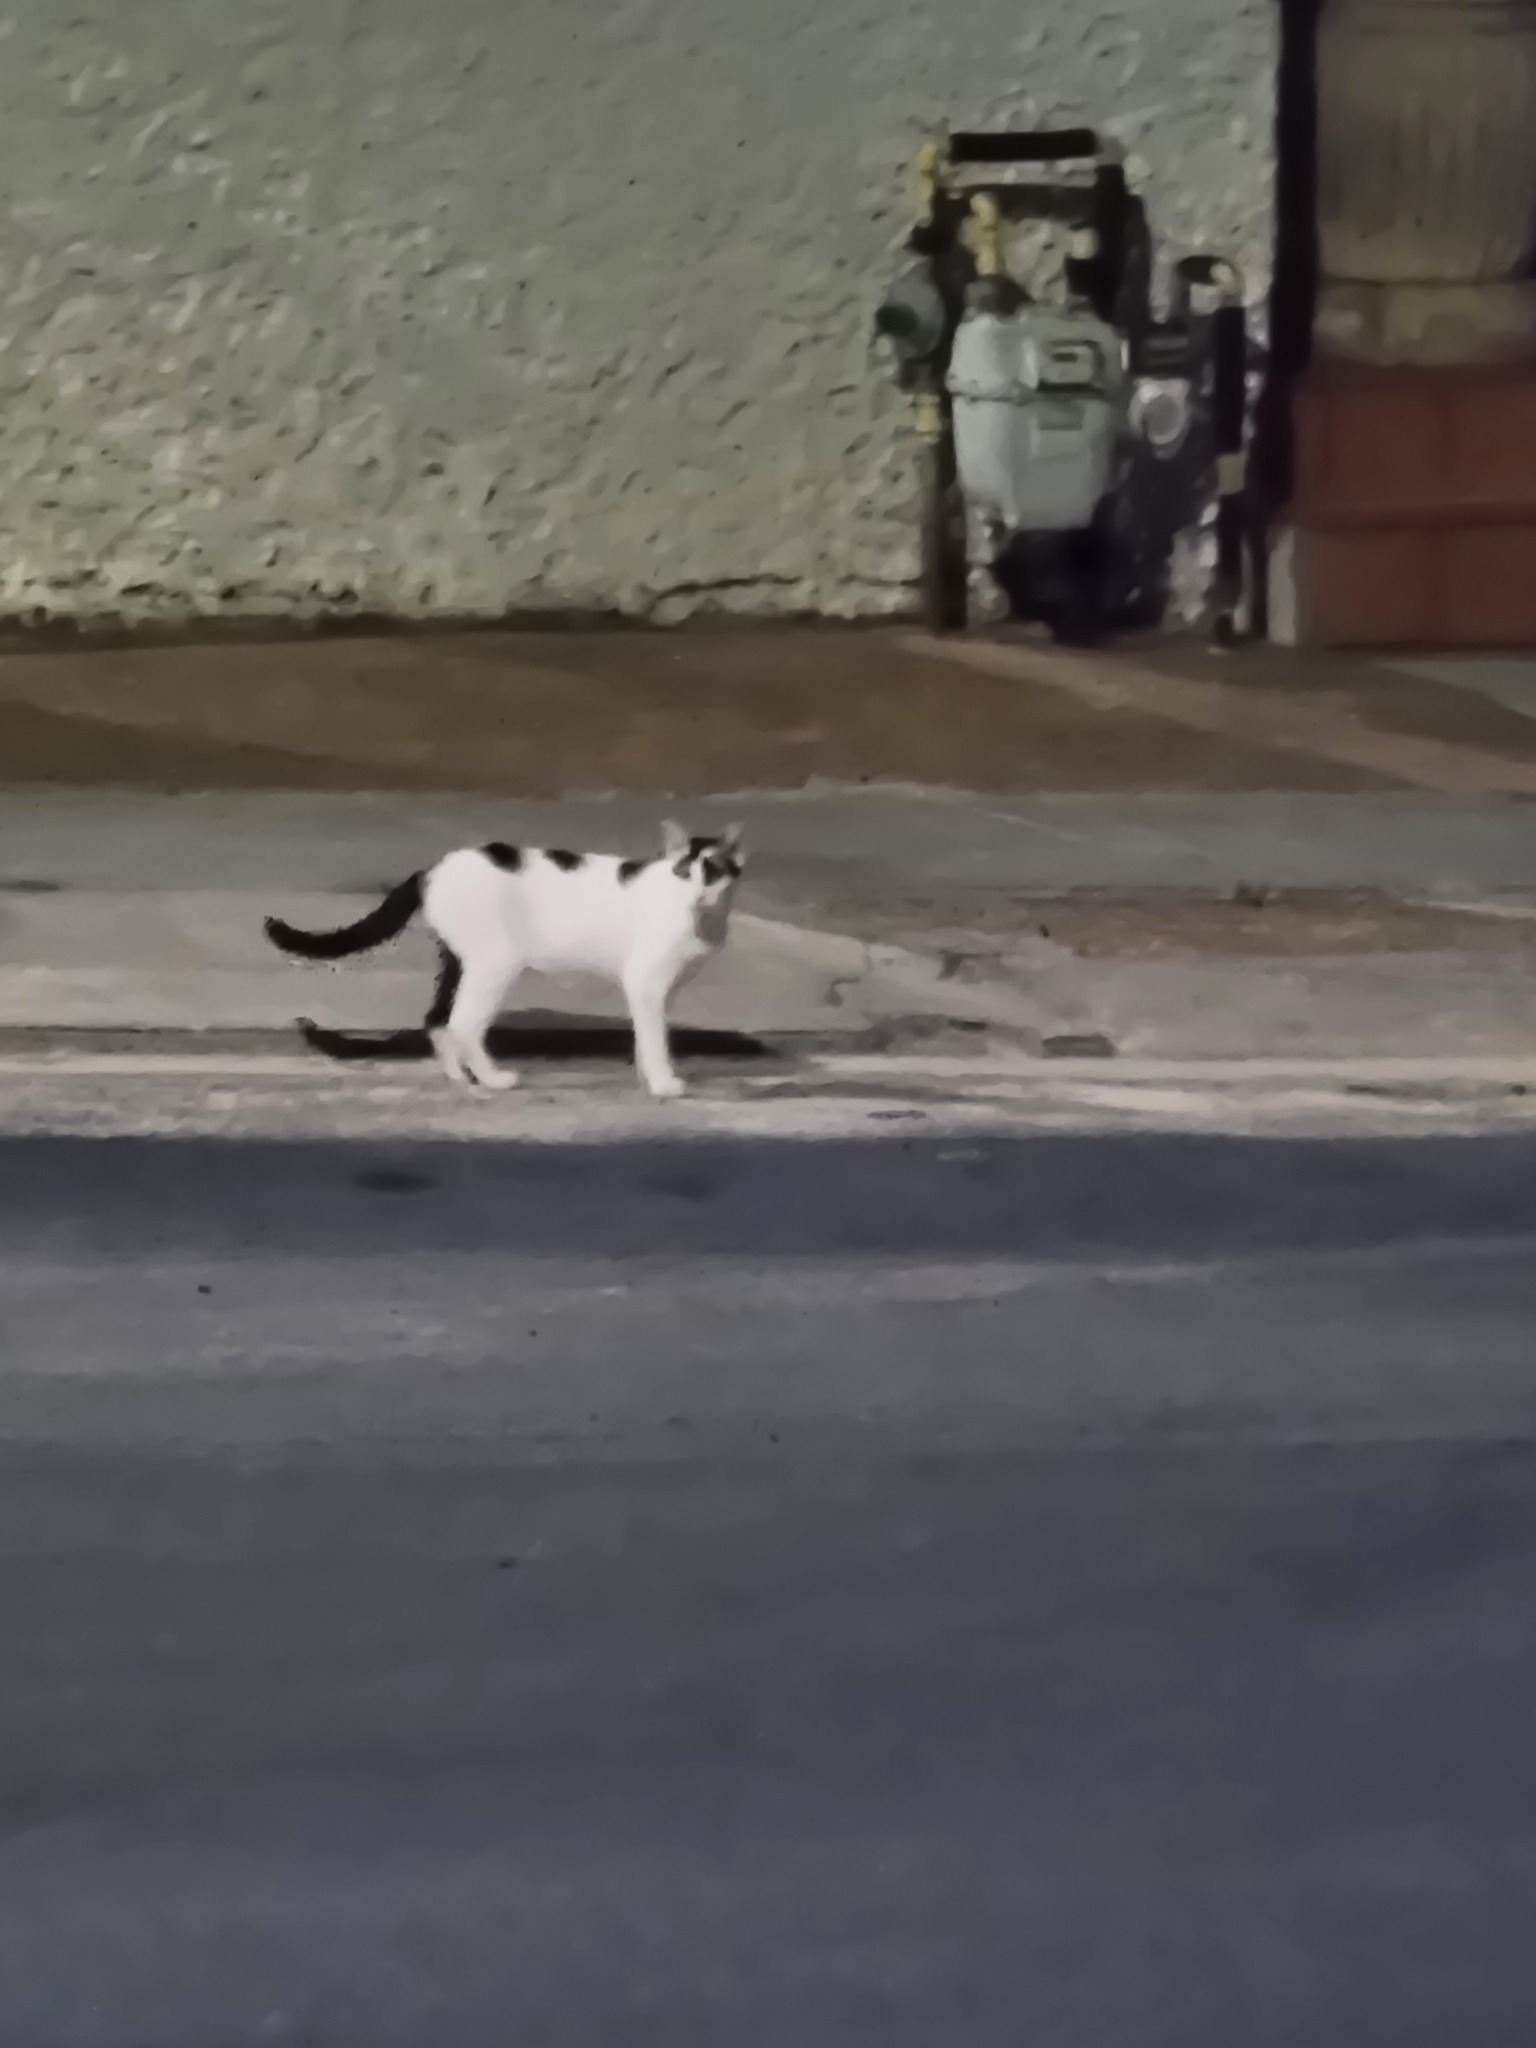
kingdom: Animalia
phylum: Chordata
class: Mammalia
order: Carnivora
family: Felidae
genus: Felis
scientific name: Felis catus
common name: Domestic cat
